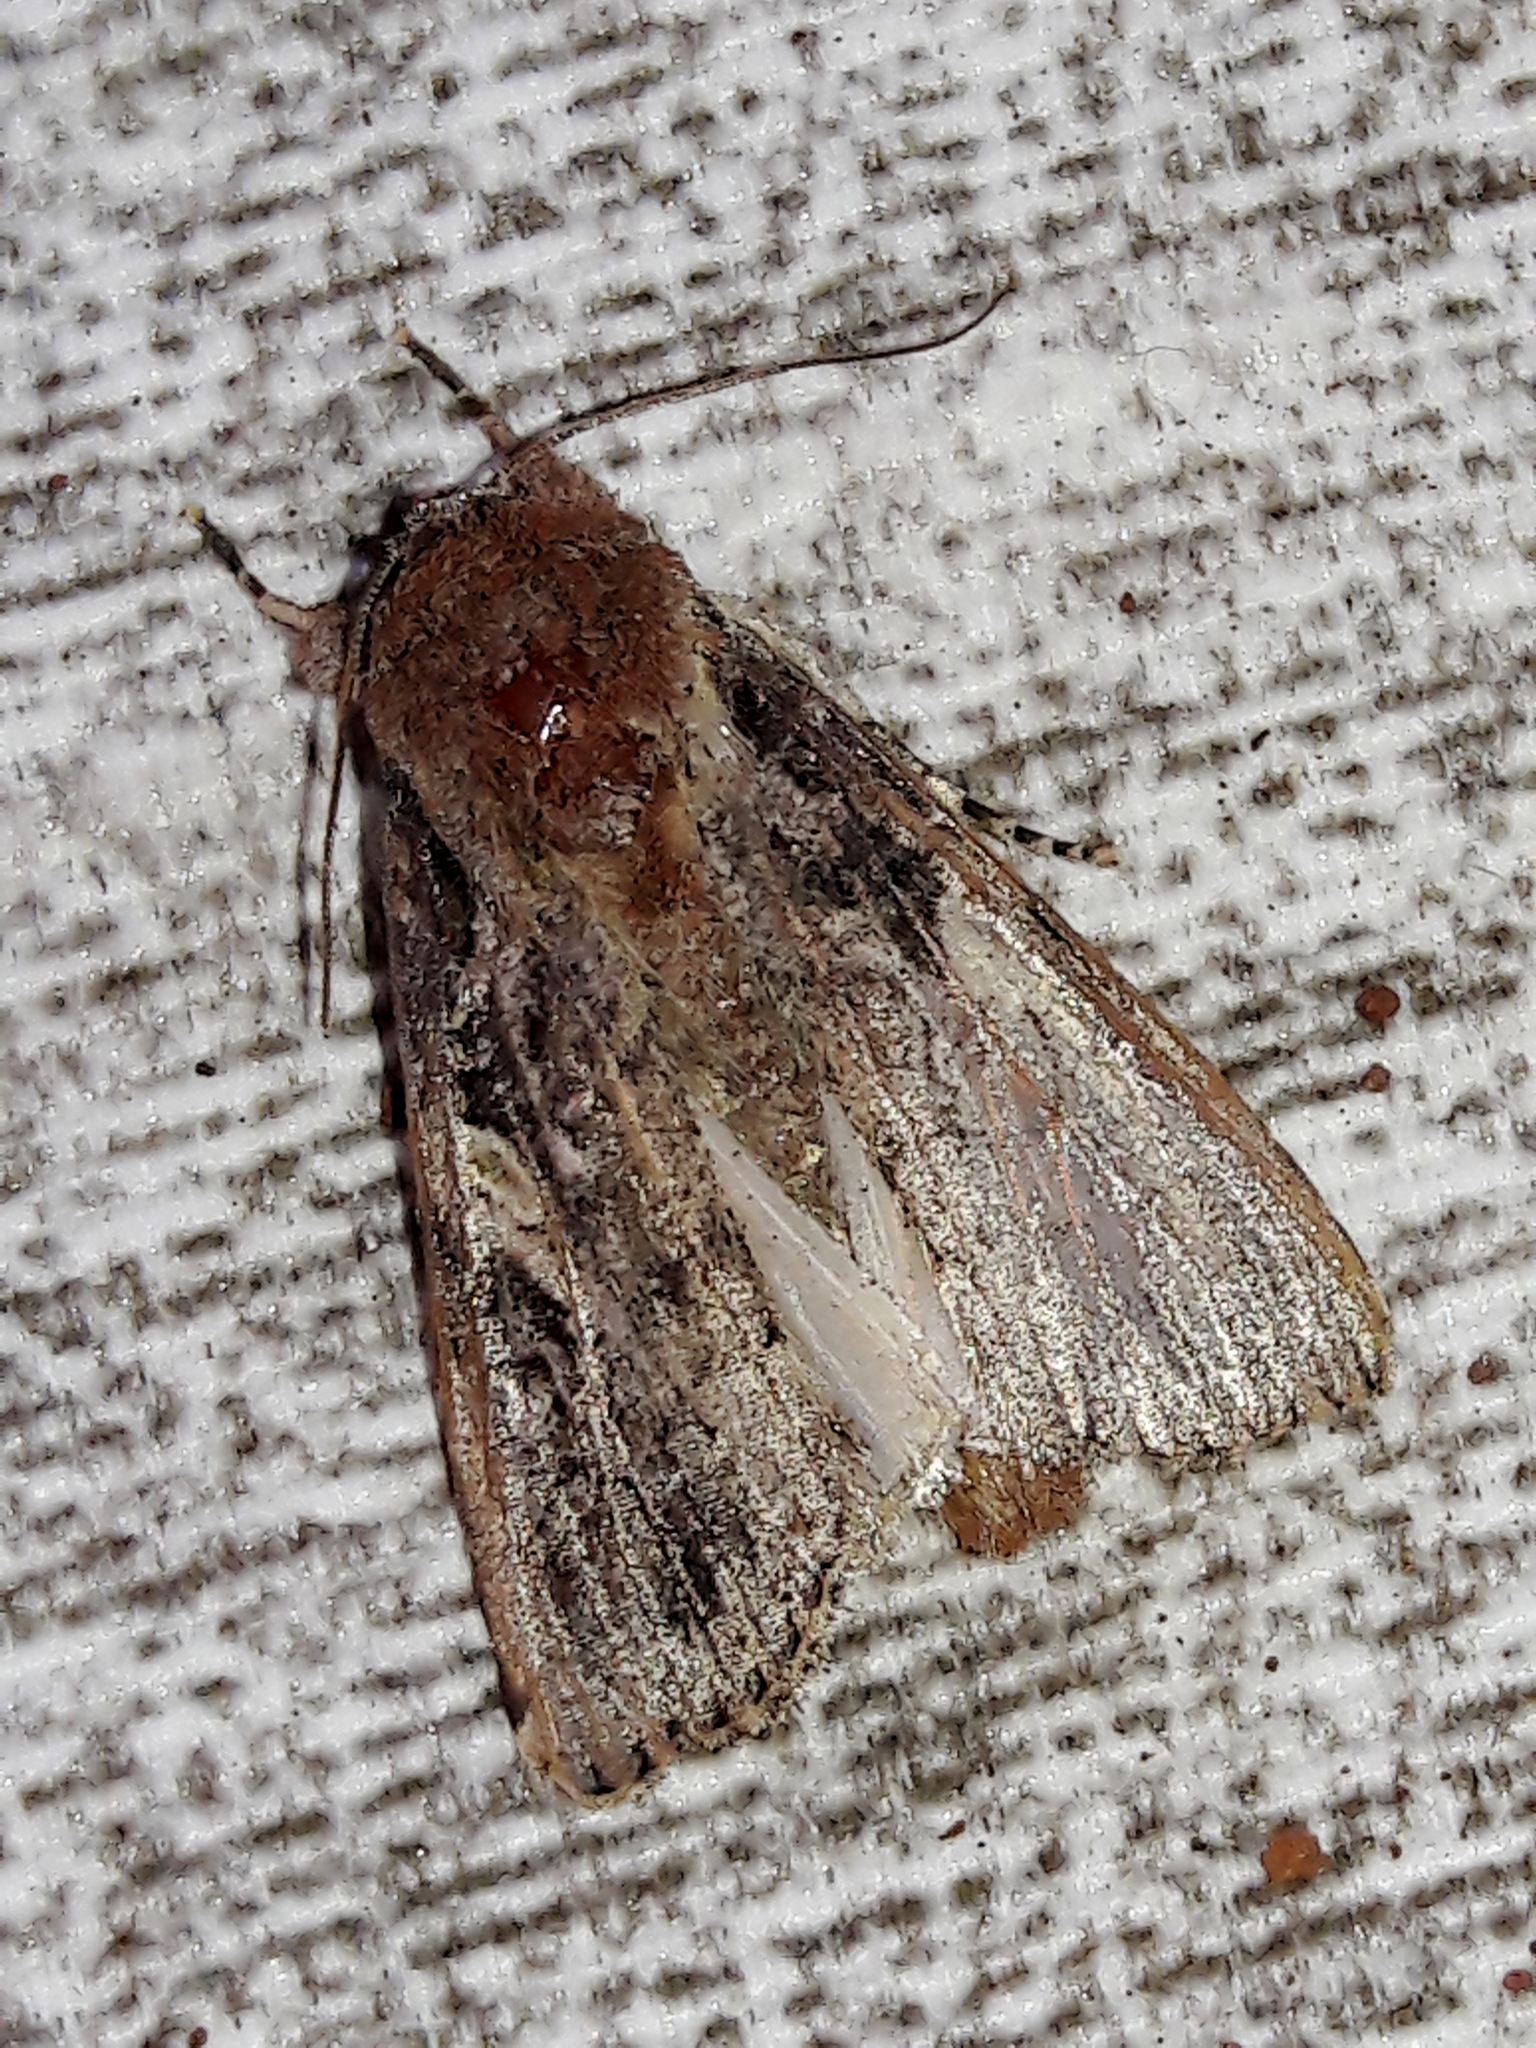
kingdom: Animalia
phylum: Arthropoda
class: Insecta
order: Lepidoptera
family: Noctuidae
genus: Spodoptera
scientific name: Spodoptera frugiperda
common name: Fall armyworm
